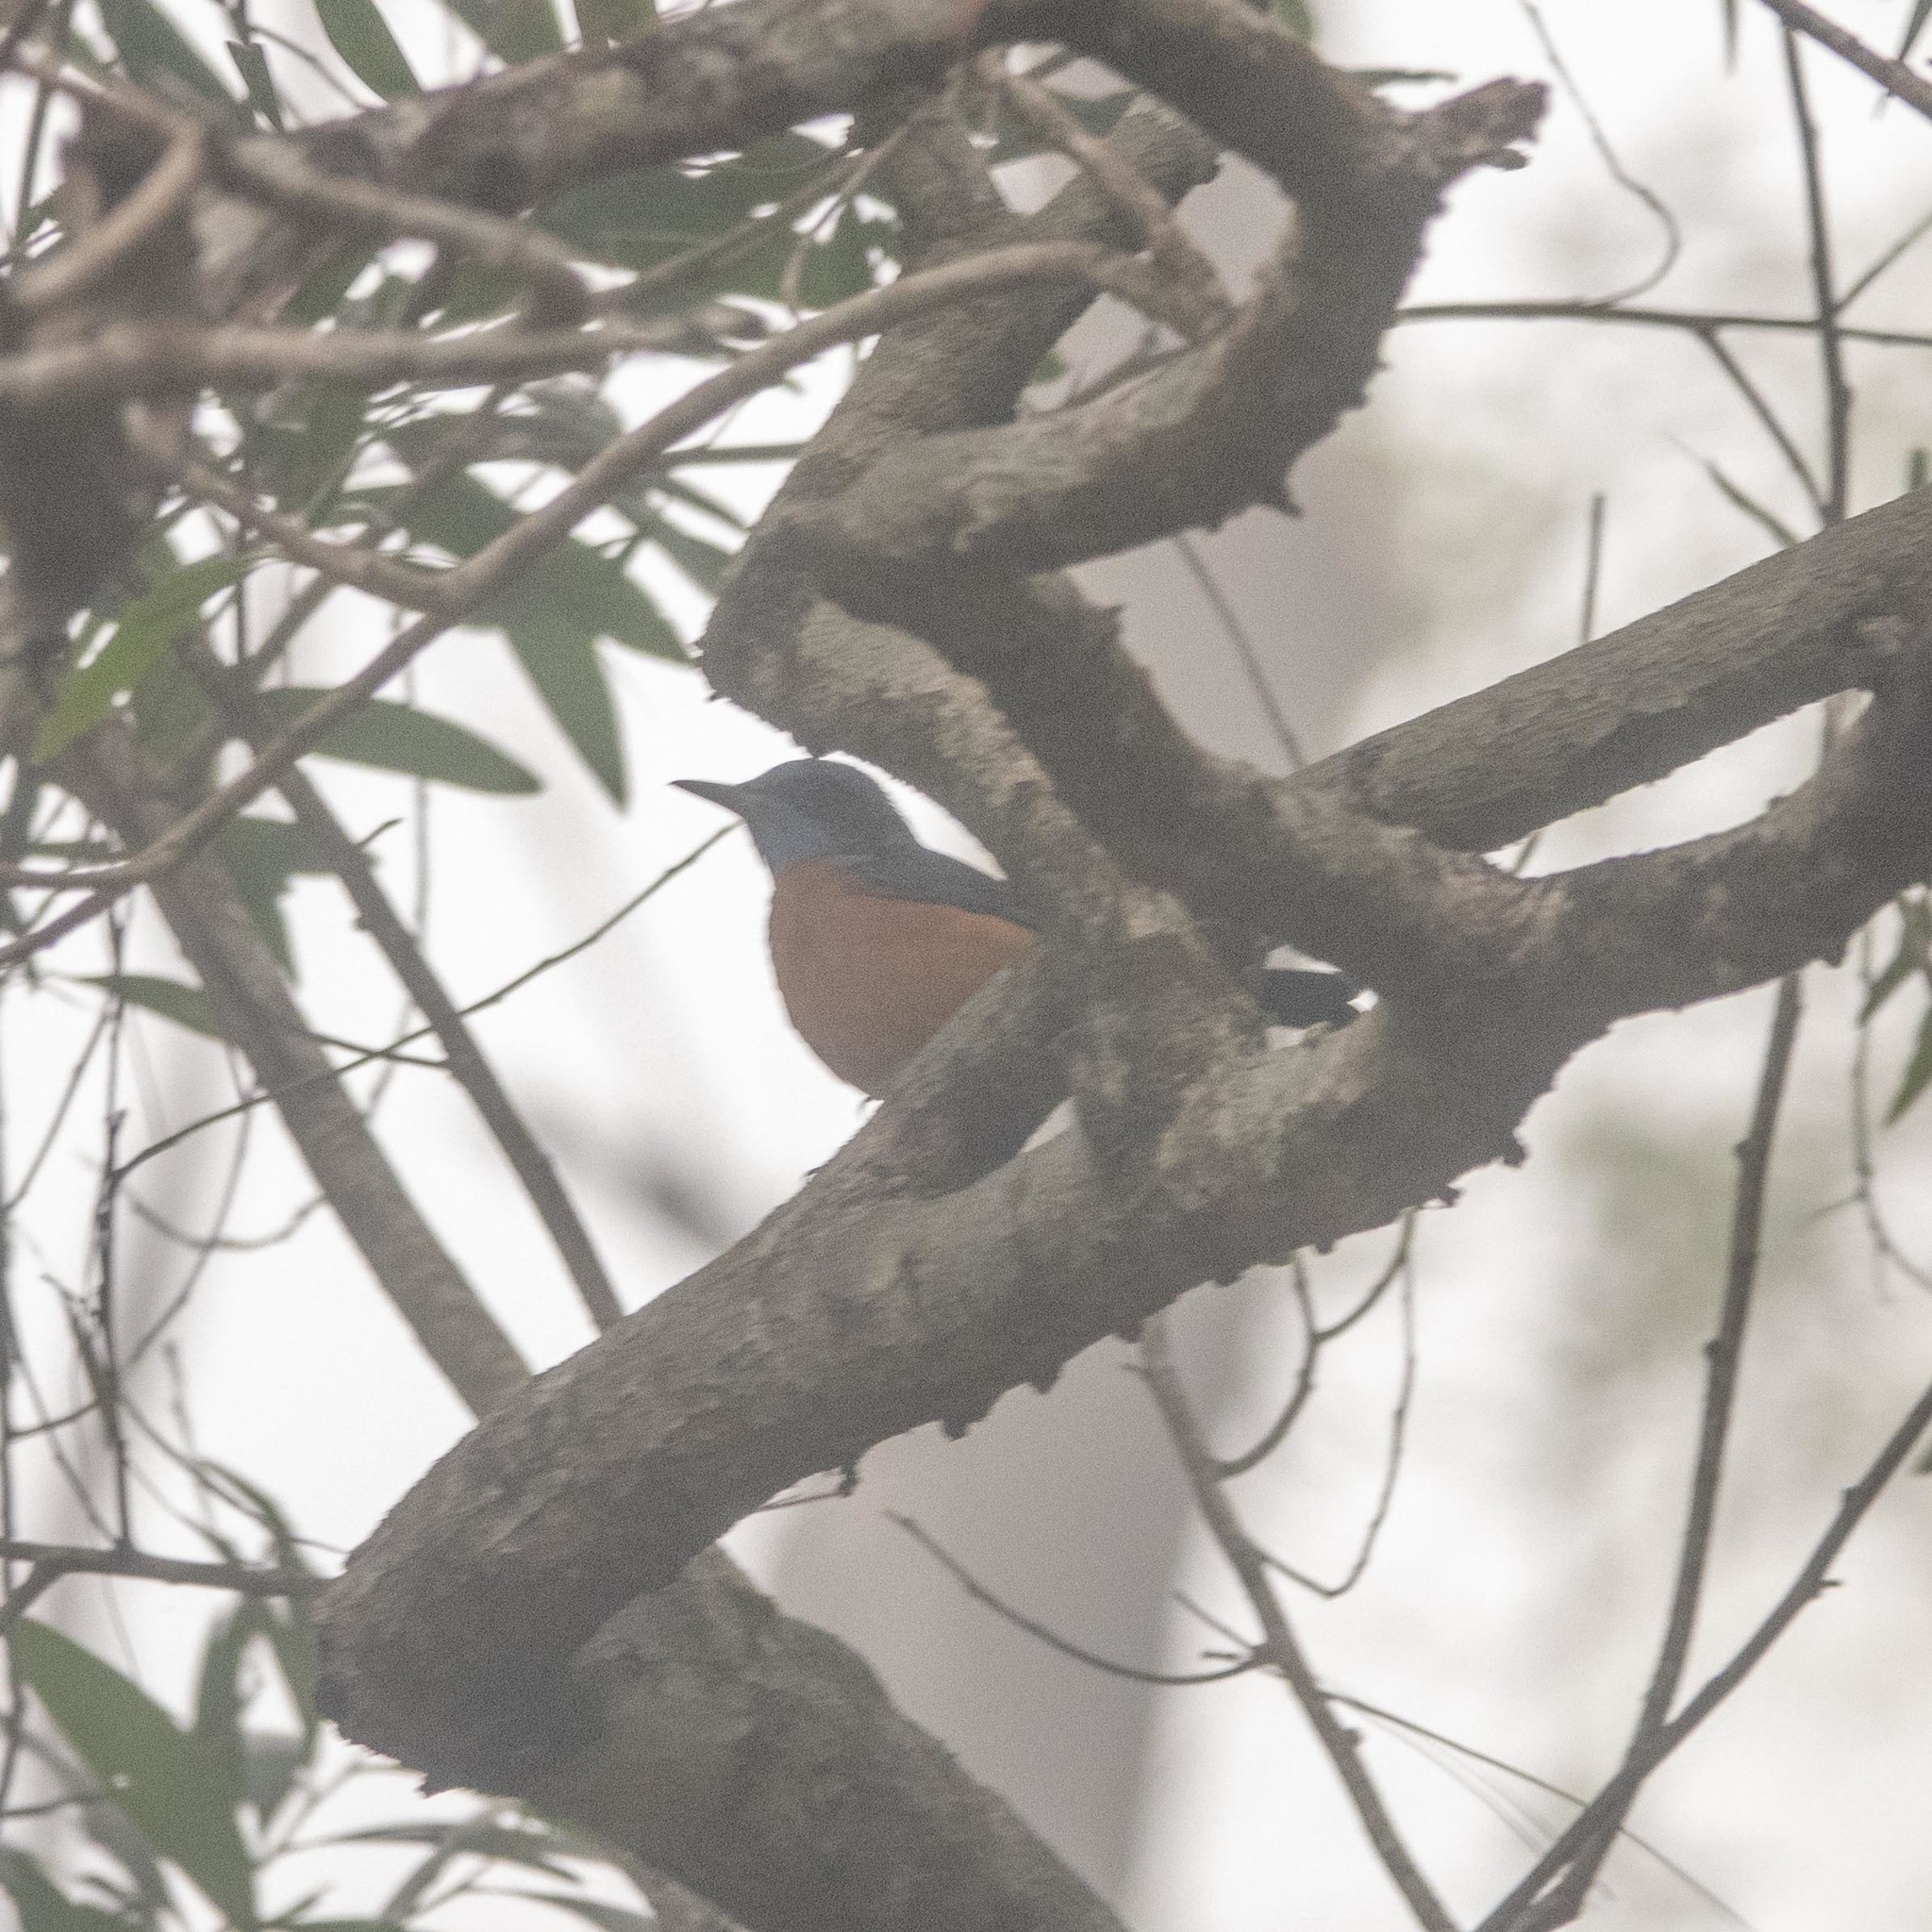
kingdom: Animalia
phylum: Chordata
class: Aves
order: Passeriformes
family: Muscicapidae
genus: Monticola
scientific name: Monticola cinclorhynchus
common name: Blue-capped rock thrush
